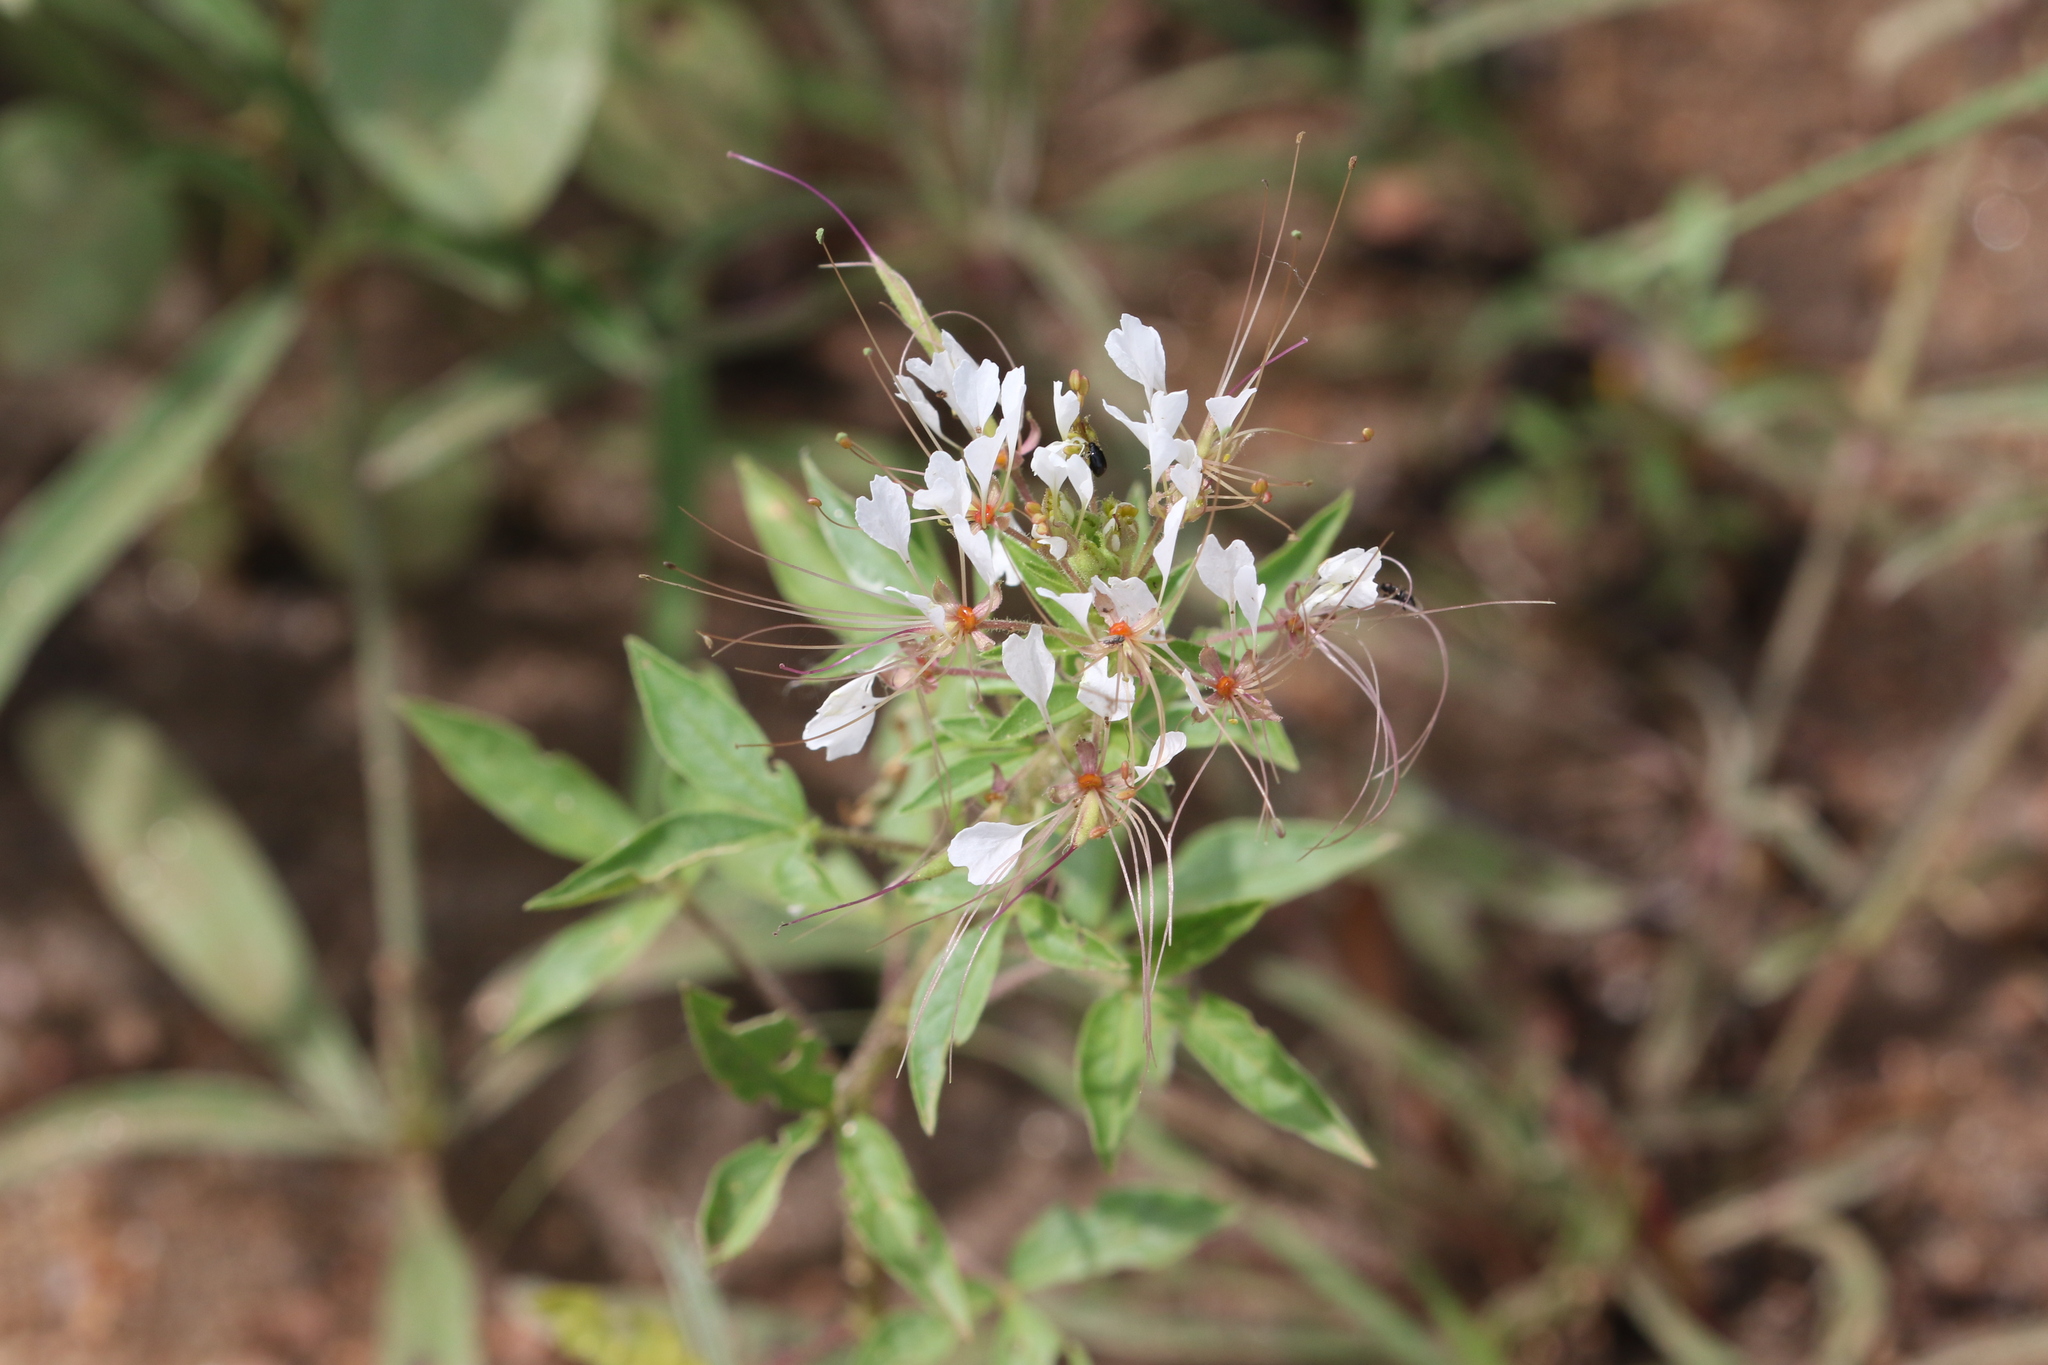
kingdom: Plantae
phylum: Tracheophyta
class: Magnoliopsida
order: Brassicales
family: Cleomaceae
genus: Polanisia
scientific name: Polanisia dodecandra
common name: Clammyweed
